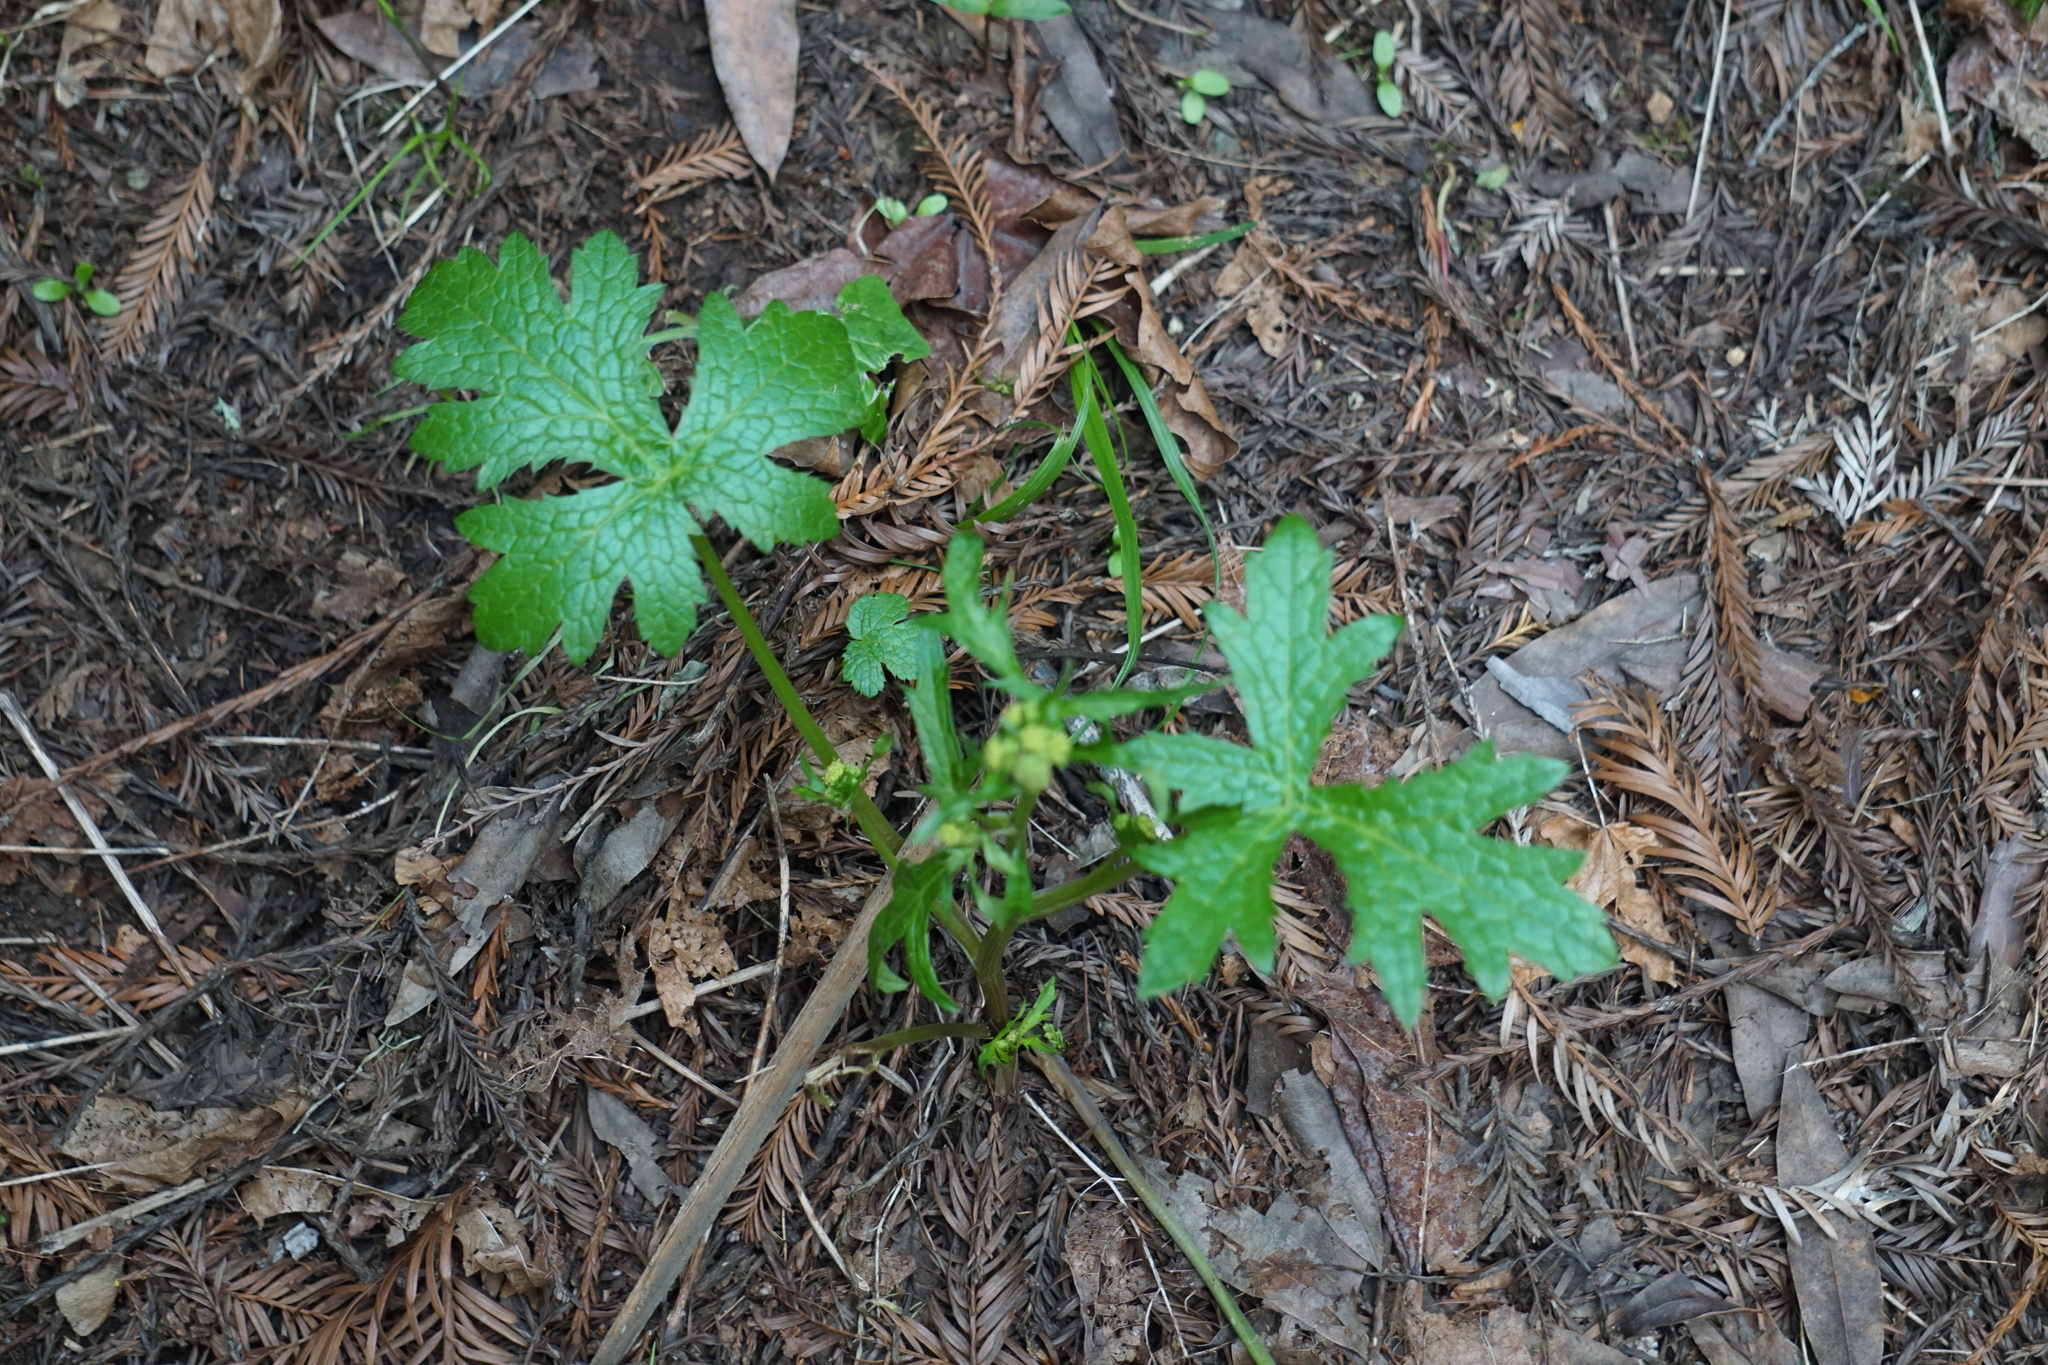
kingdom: Plantae
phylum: Tracheophyta
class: Magnoliopsida
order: Apiales
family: Apiaceae
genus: Sanicula
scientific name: Sanicula crassicaulis
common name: Western snakeroot
